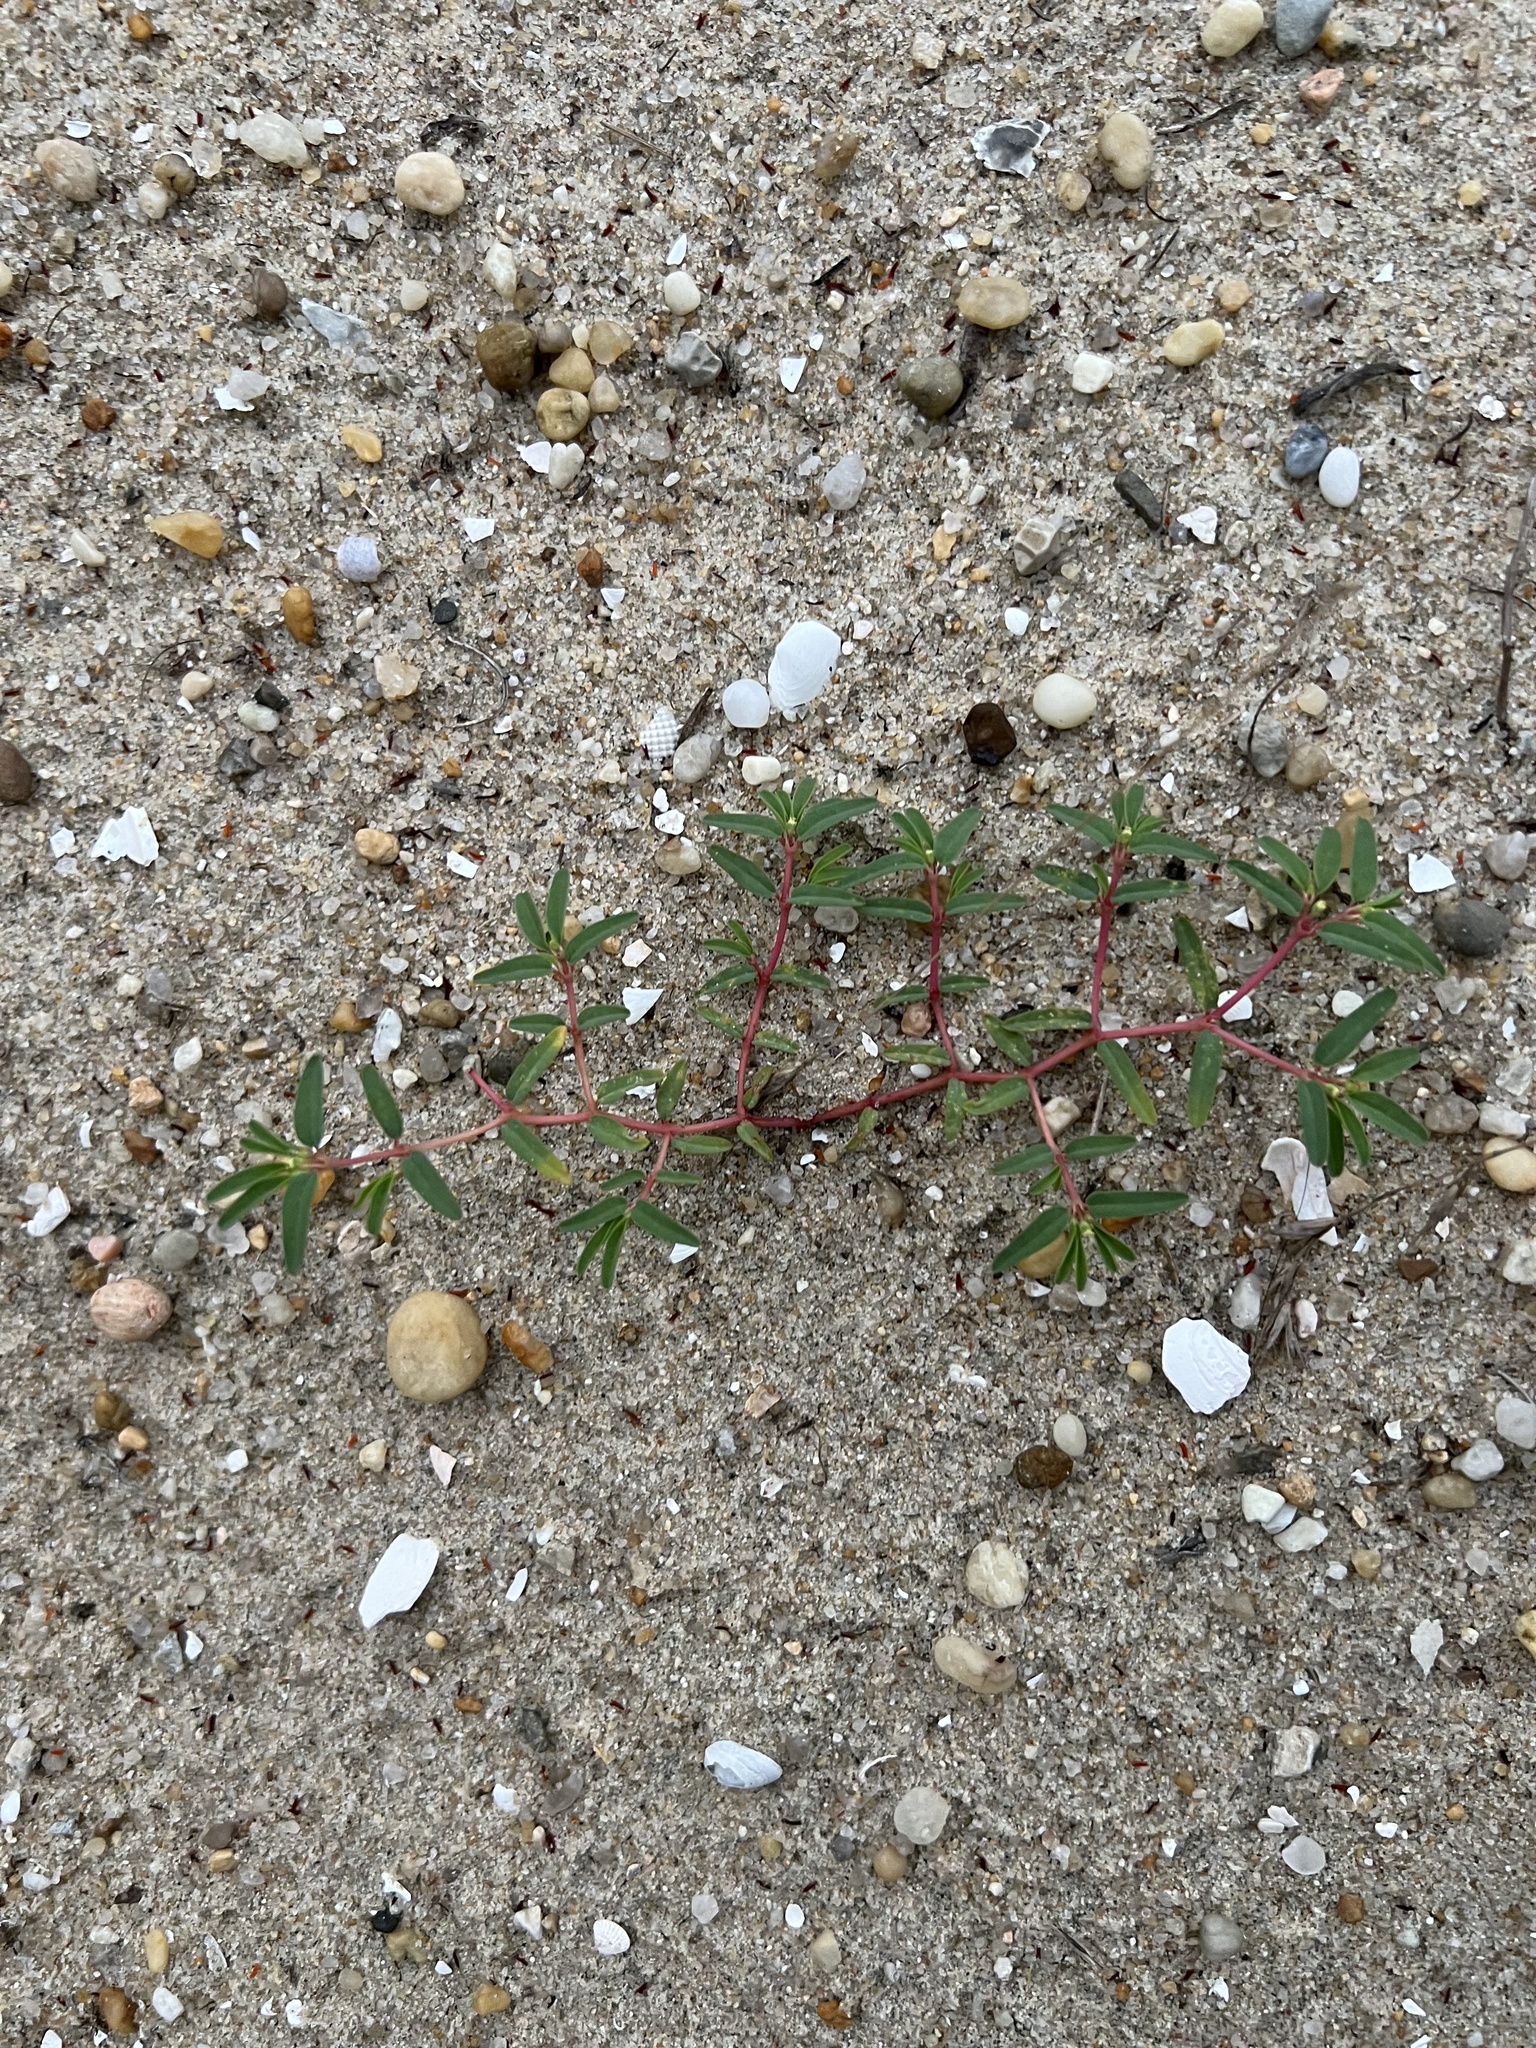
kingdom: Plantae
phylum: Tracheophyta
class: Magnoliopsida
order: Malpighiales
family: Euphorbiaceae
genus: Euphorbia
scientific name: Euphorbia polygonifolia
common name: Knotweed spurge
